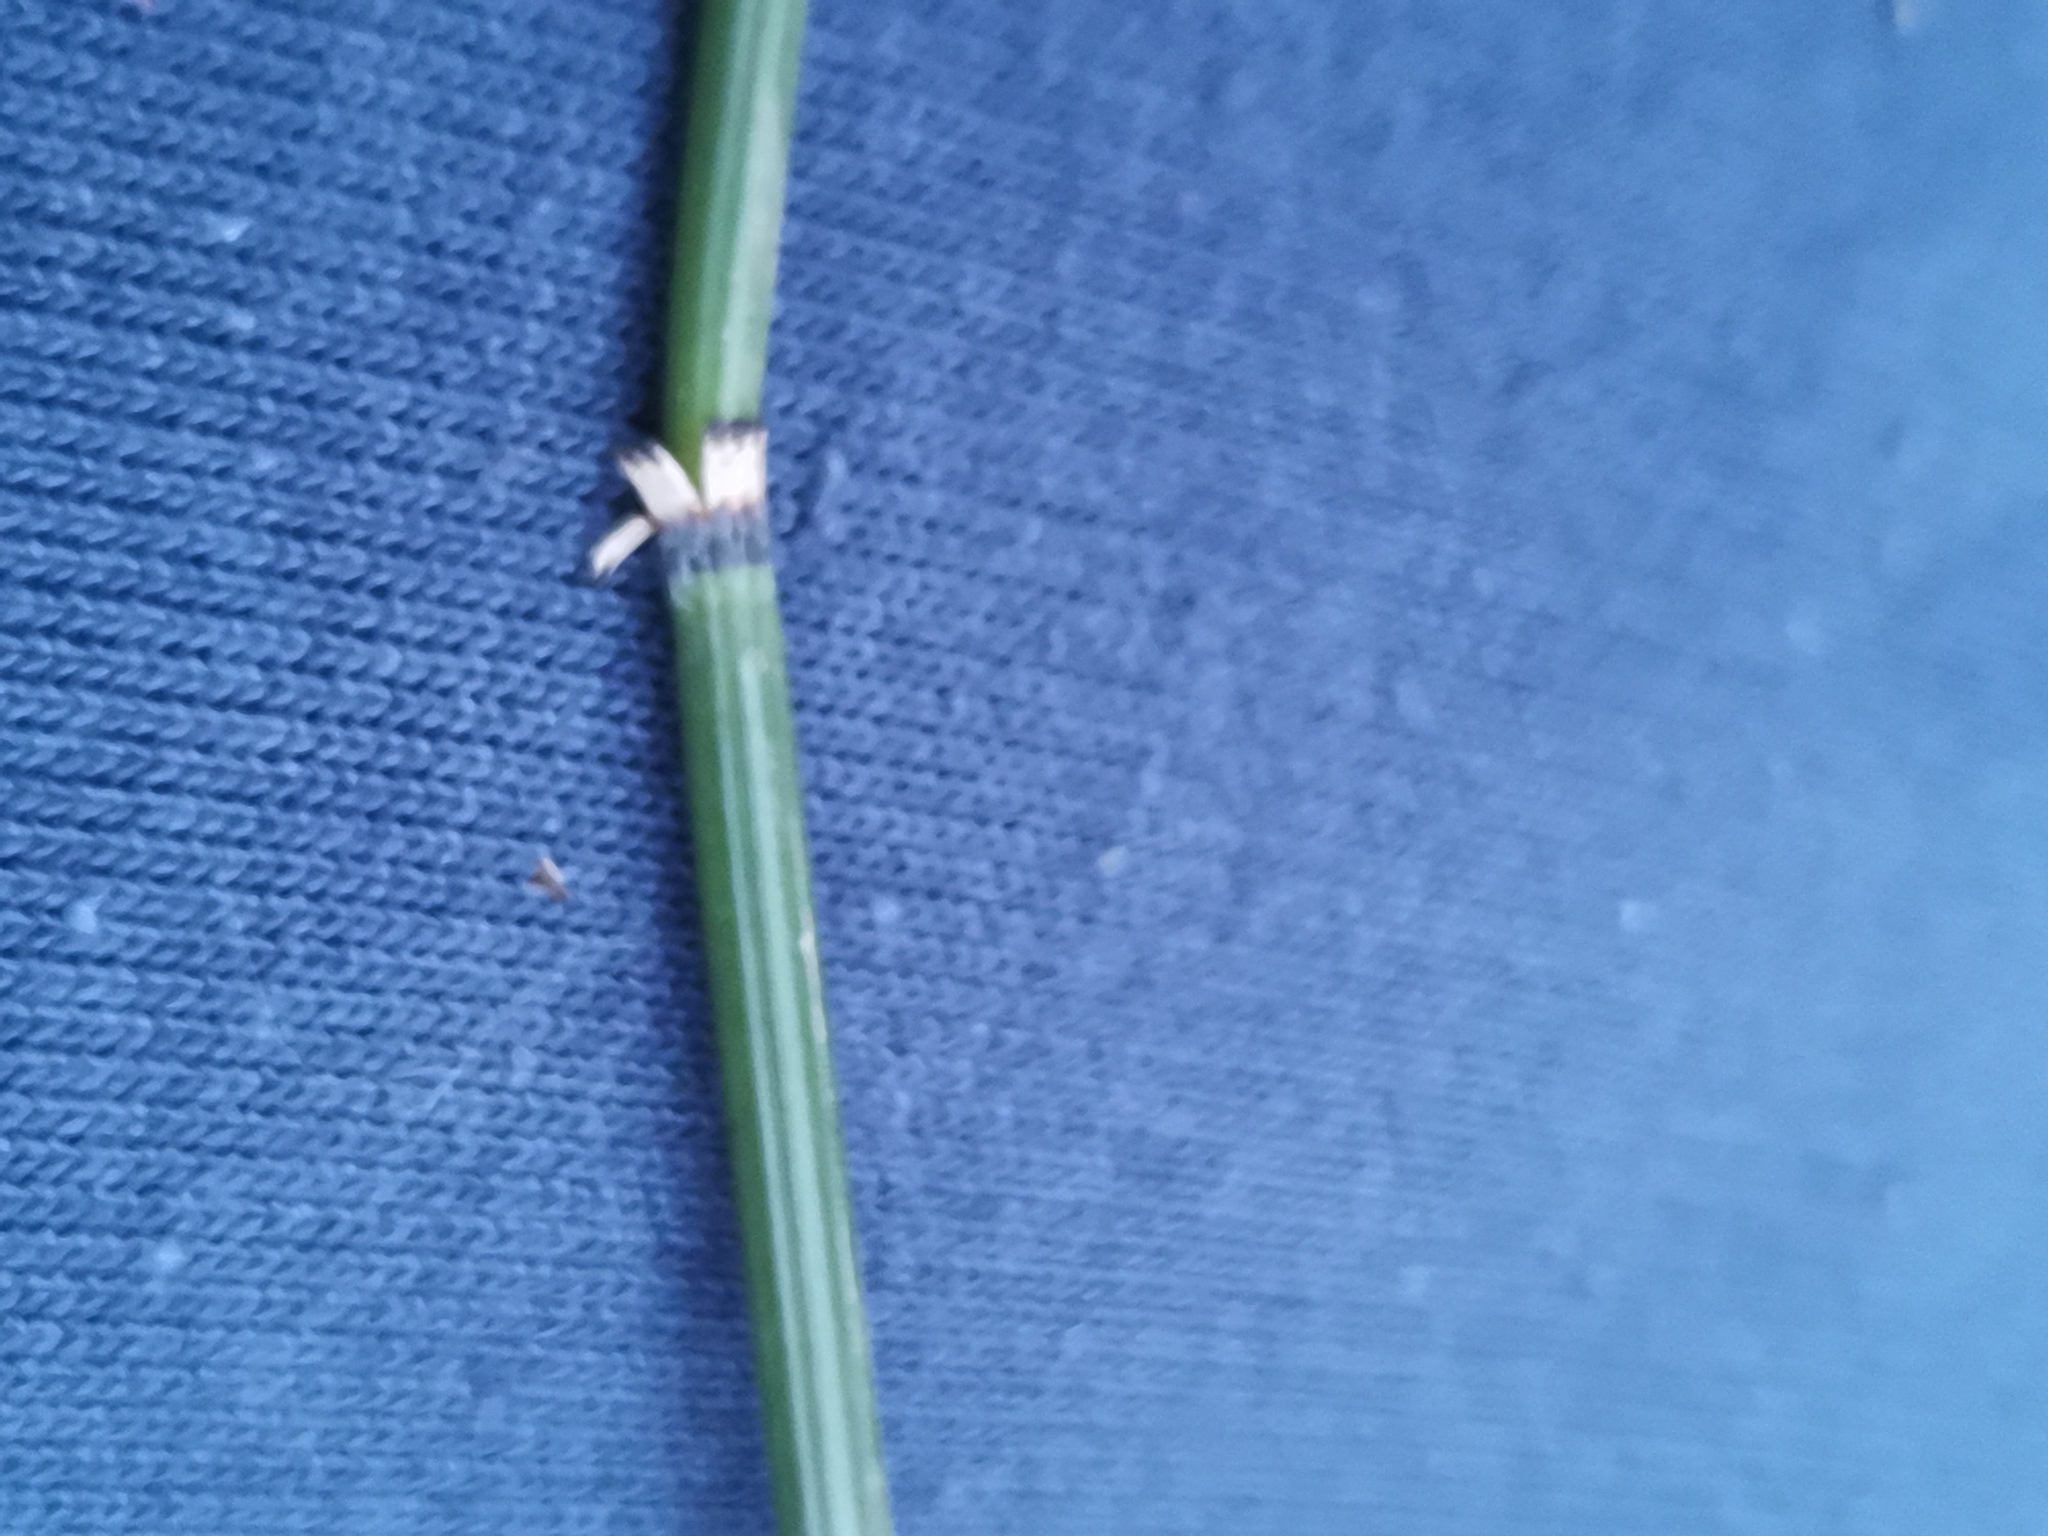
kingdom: Plantae
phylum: Tracheophyta
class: Polypodiopsida
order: Equisetales
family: Equisetaceae
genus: Equisetum
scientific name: Equisetum hyemale
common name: Rough horsetail
